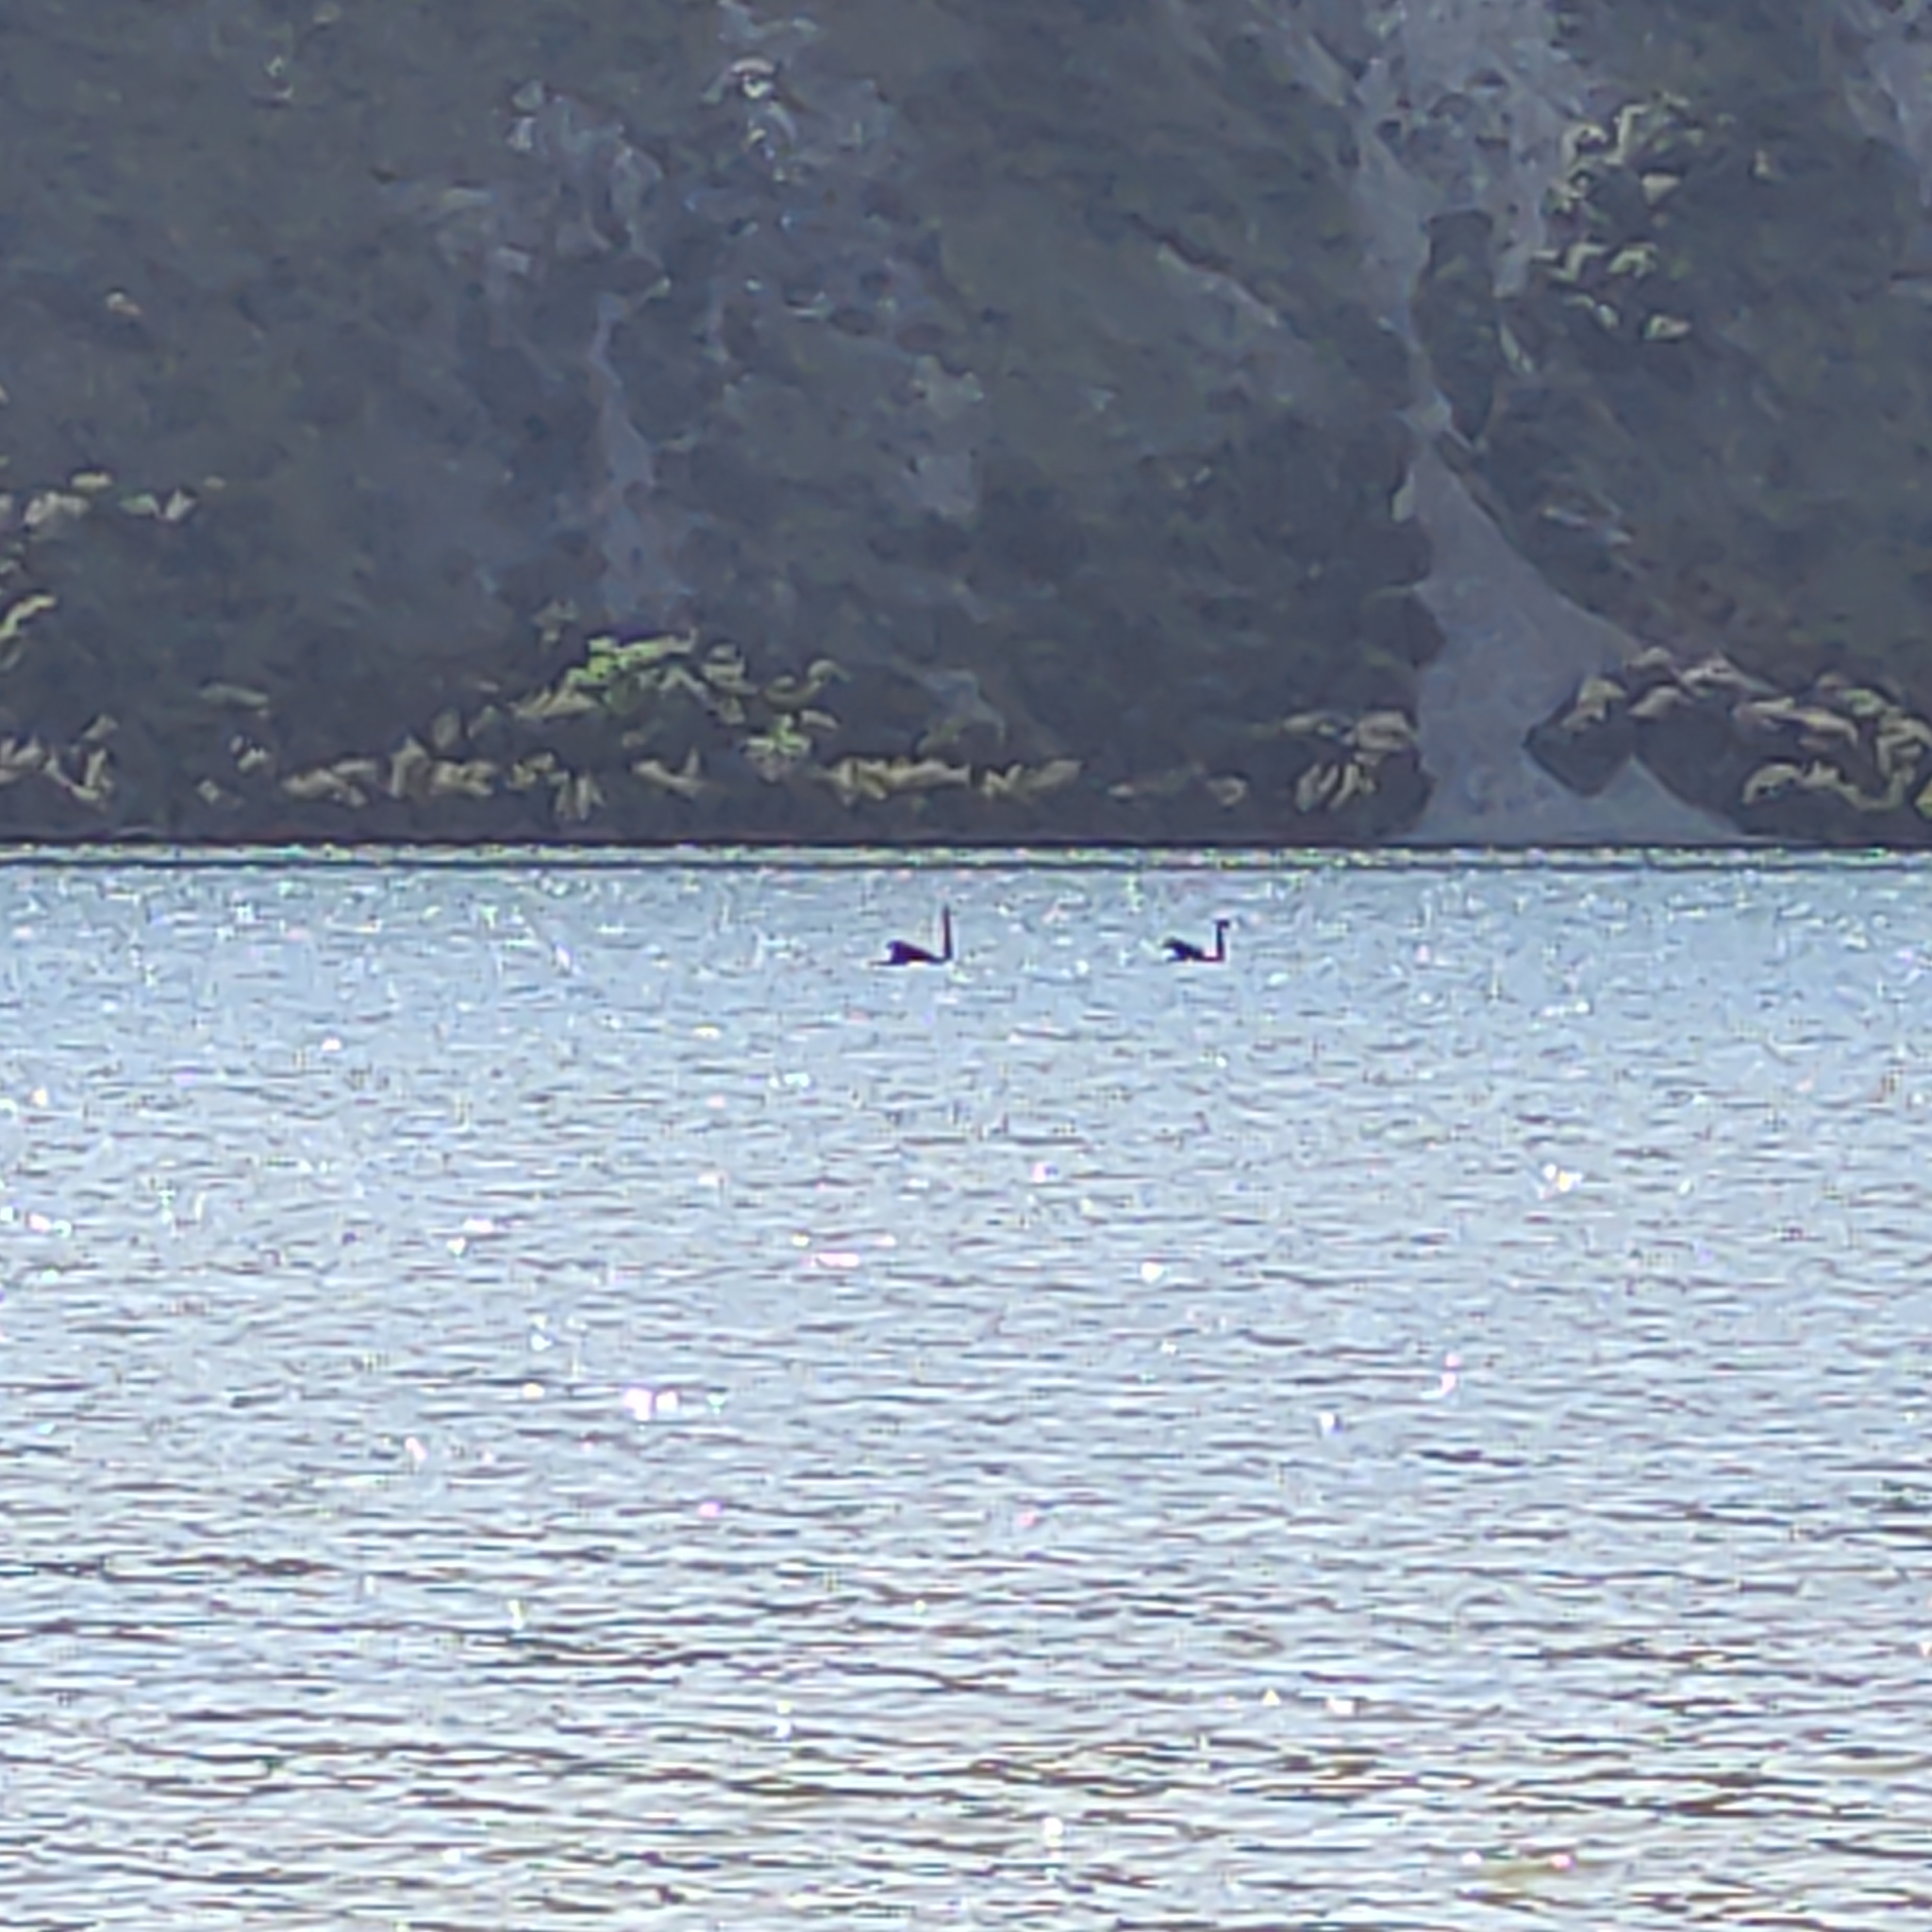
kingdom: Animalia
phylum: Chordata
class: Aves
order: Anseriformes
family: Anatidae
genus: Cygnus
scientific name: Cygnus atratus
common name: Black swan
